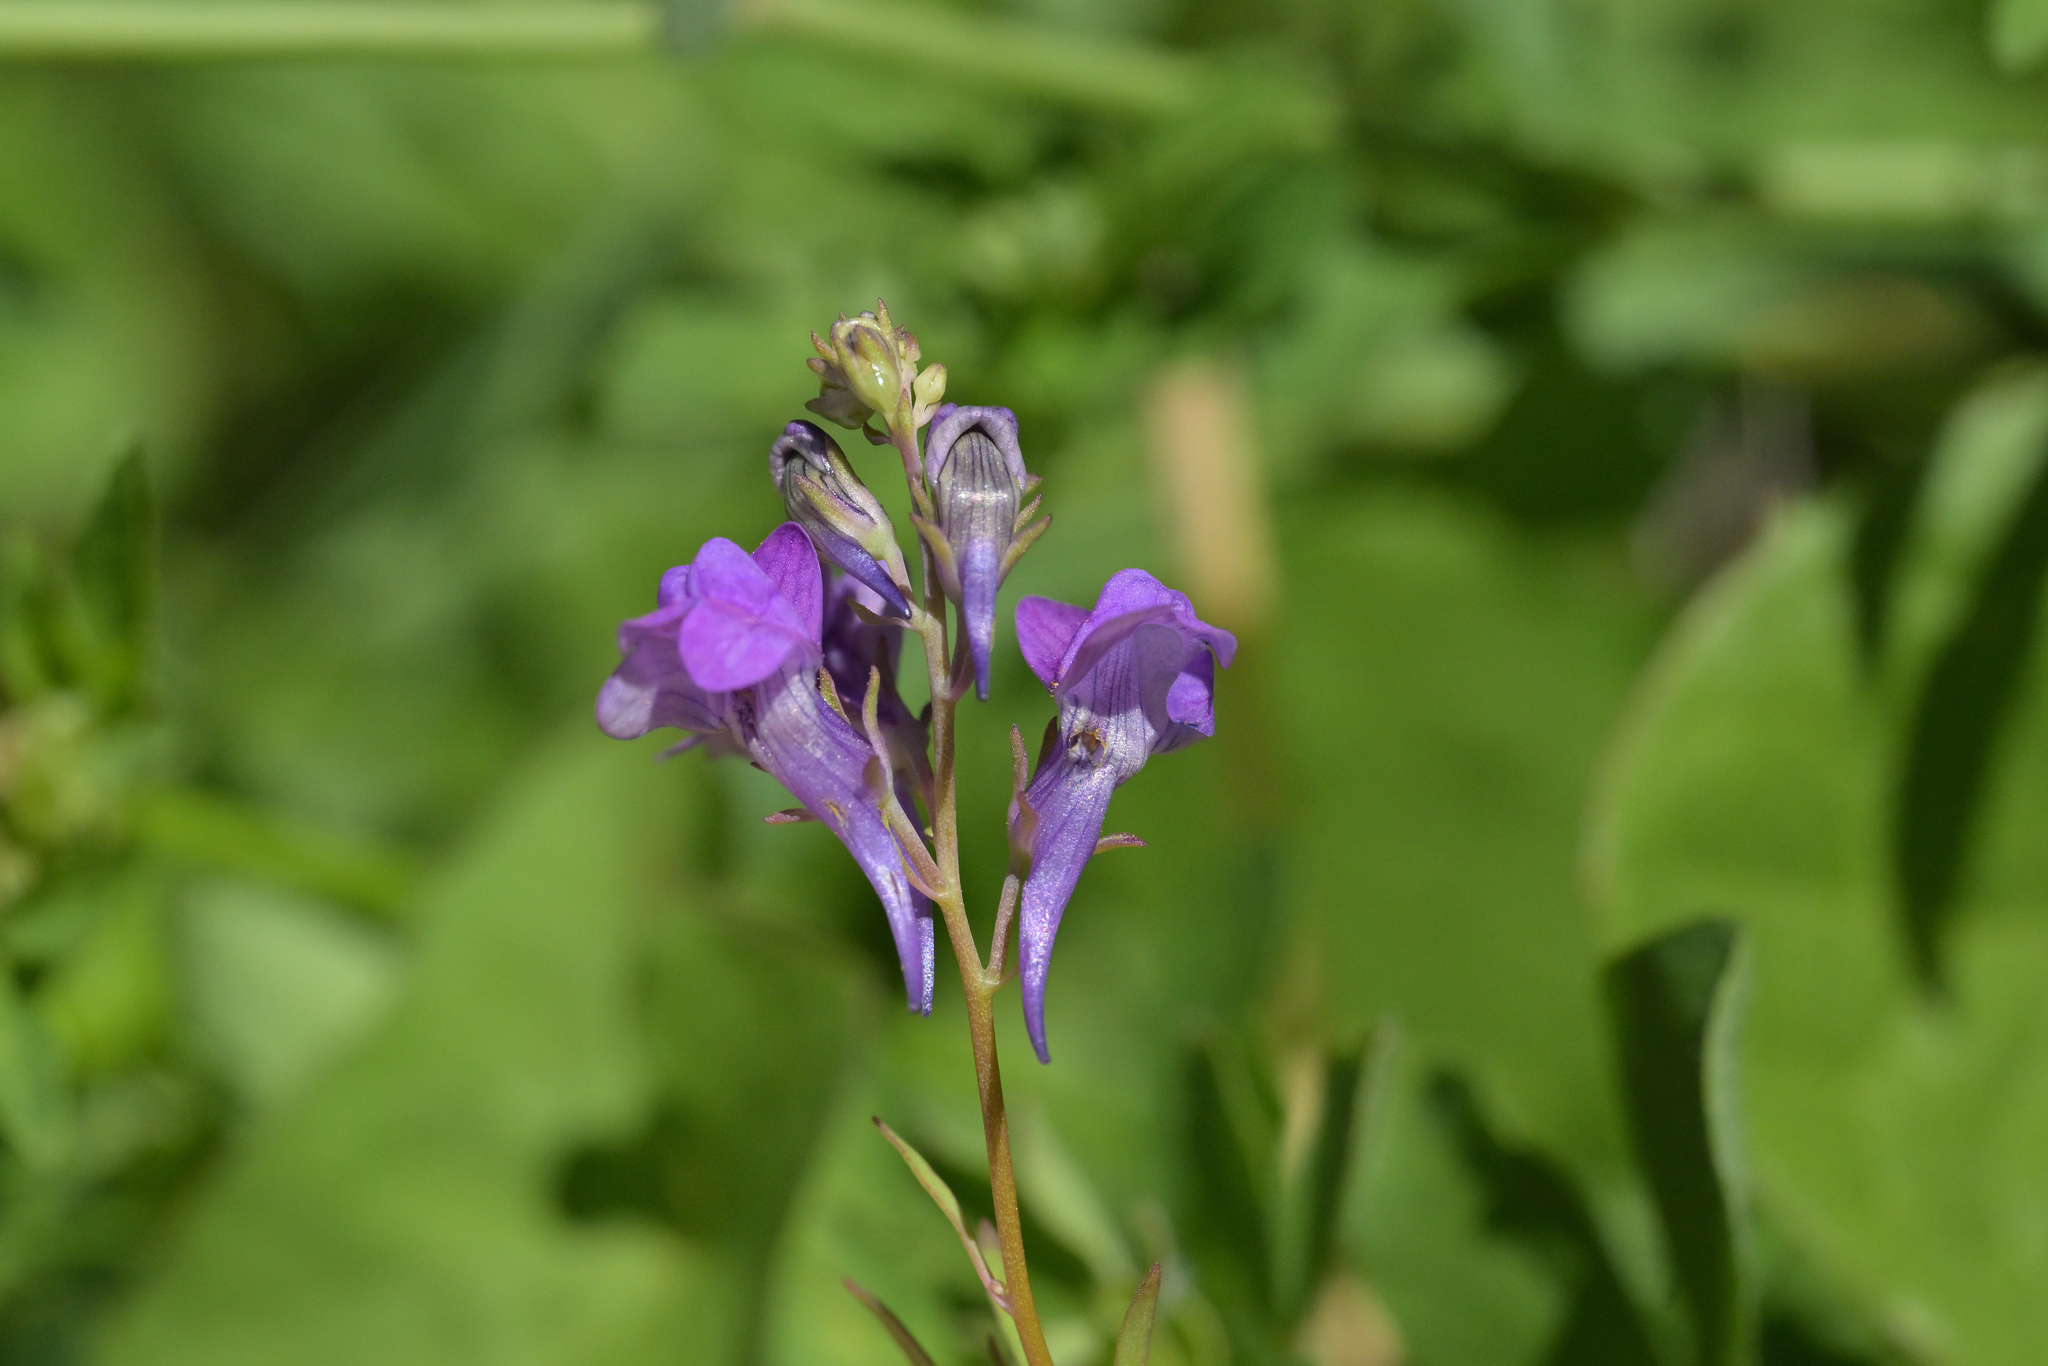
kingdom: Plantae
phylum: Tracheophyta
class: Magnoliopsida
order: Lamiales
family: Plantaginaceae
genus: Linaria
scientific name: Linaria purpurea
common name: Purple toadflax
